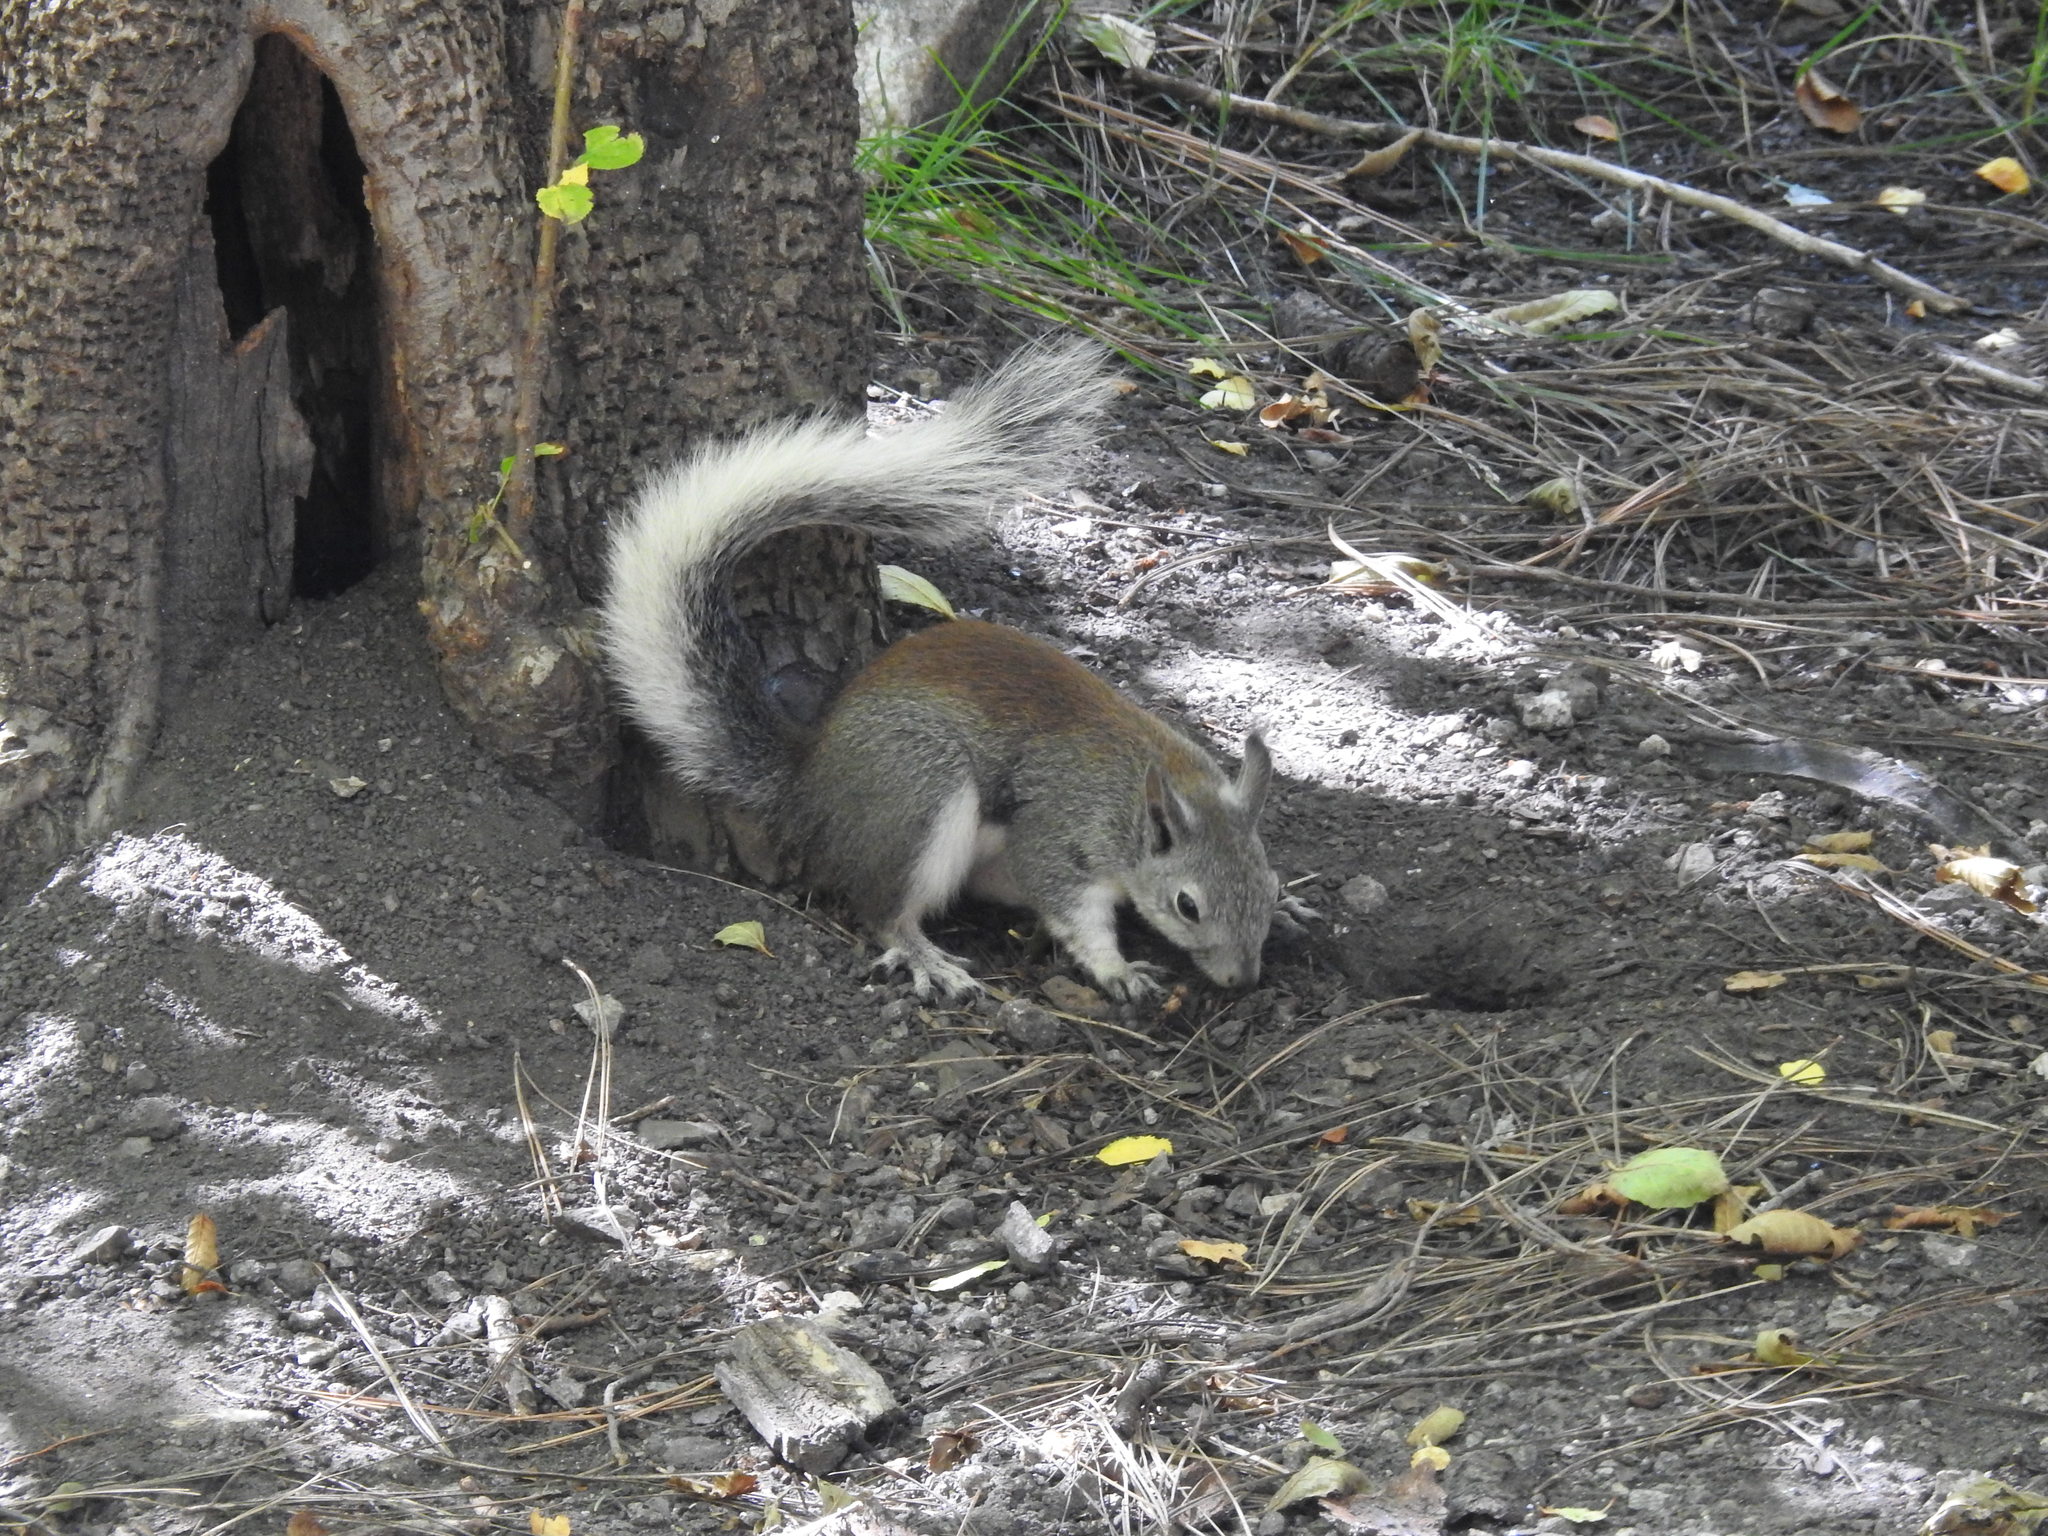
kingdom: Animalia
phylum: Chordata
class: Mammalia
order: Rodentia
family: Sciuridae
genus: Sciurus
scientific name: Sciurus aberti
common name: Abert's squirrel
